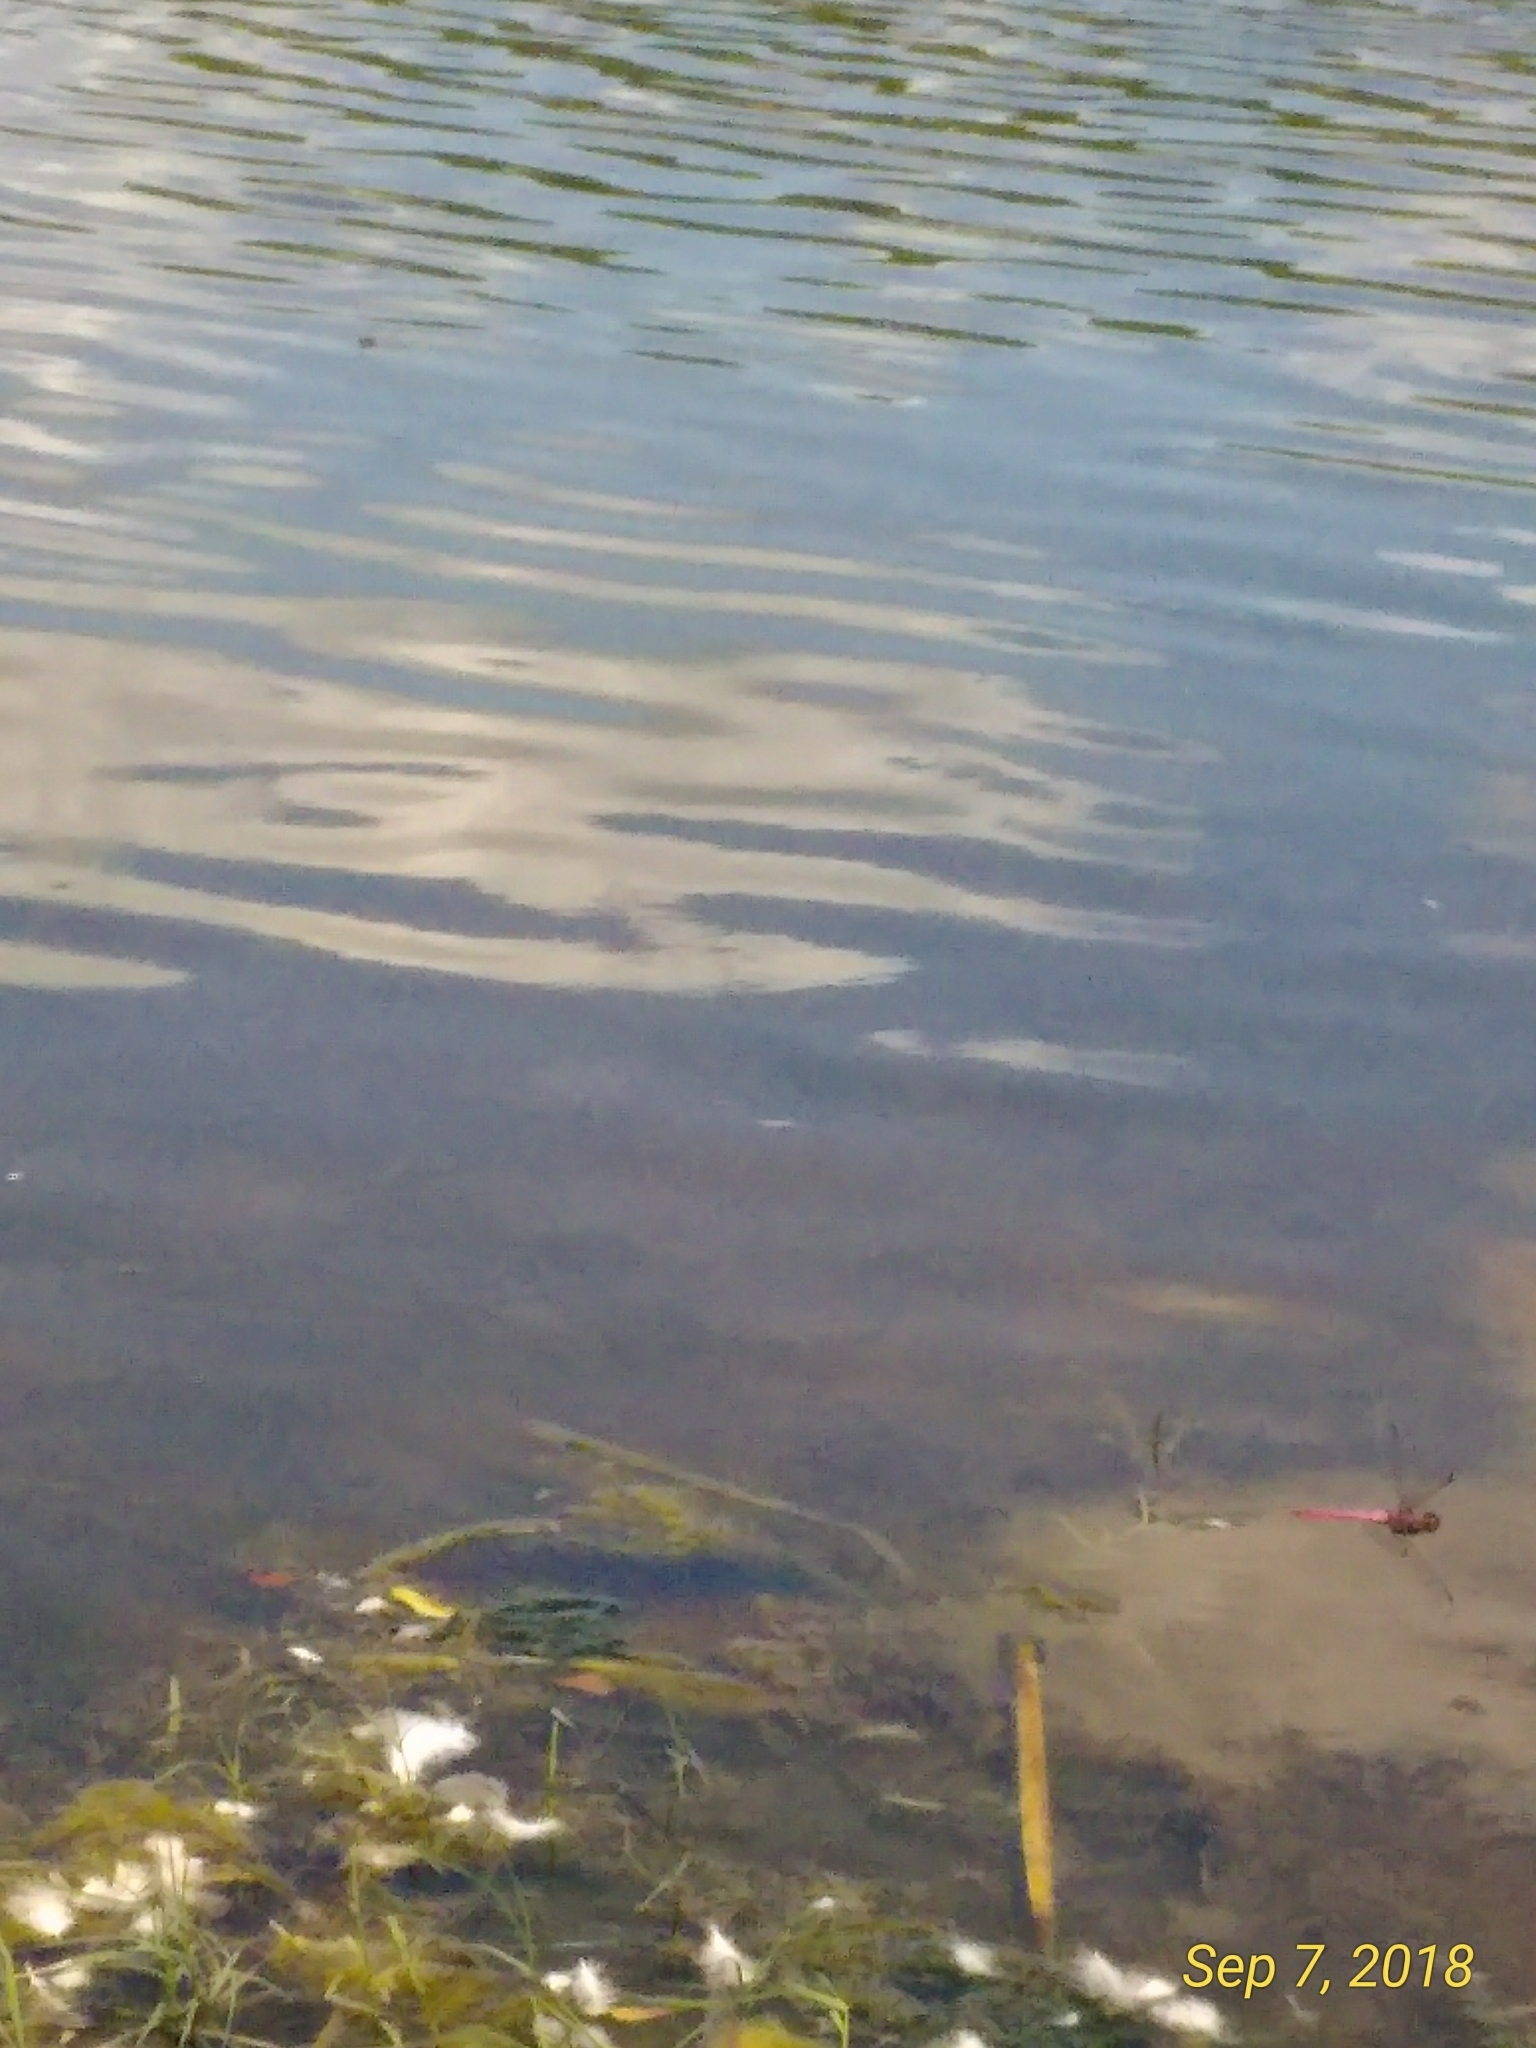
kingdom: Animalia
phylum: Arthropoda
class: Insecta
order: Odonata
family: Libellulidae
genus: Orthemis
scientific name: Orthemis ferruginea
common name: Roseate skimmer
